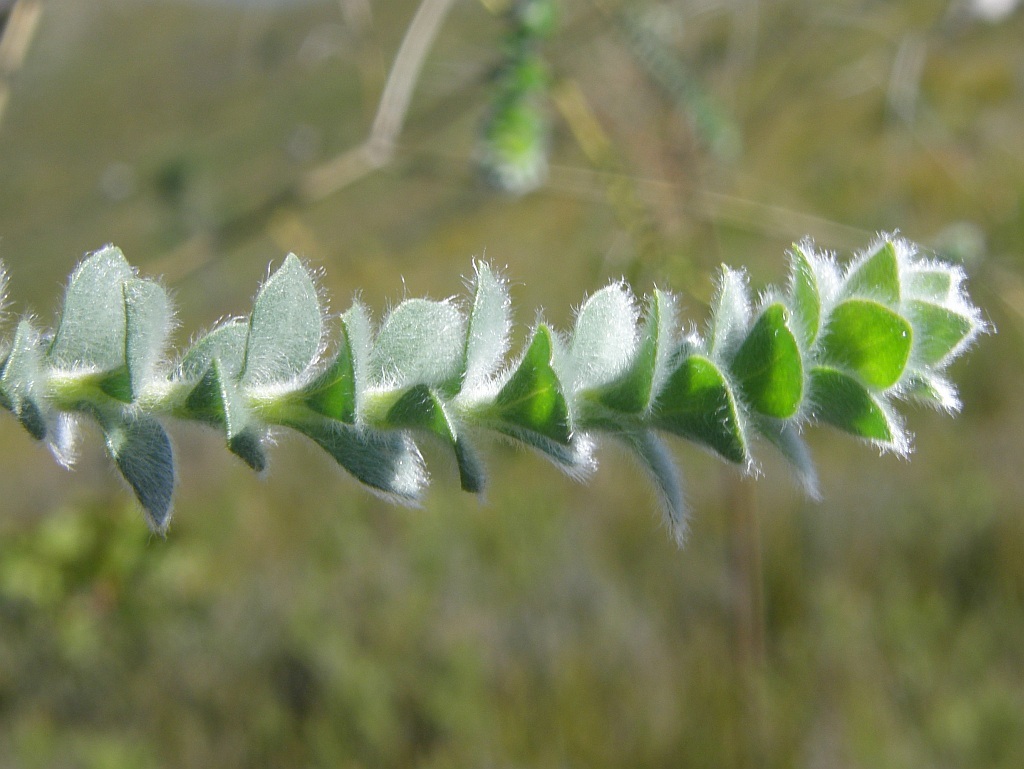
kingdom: Plantae
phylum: Tracheophyta
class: Magnoliopsida
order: Fabales
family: Fabaceae
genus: Liparia
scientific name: Liparia latifolia
